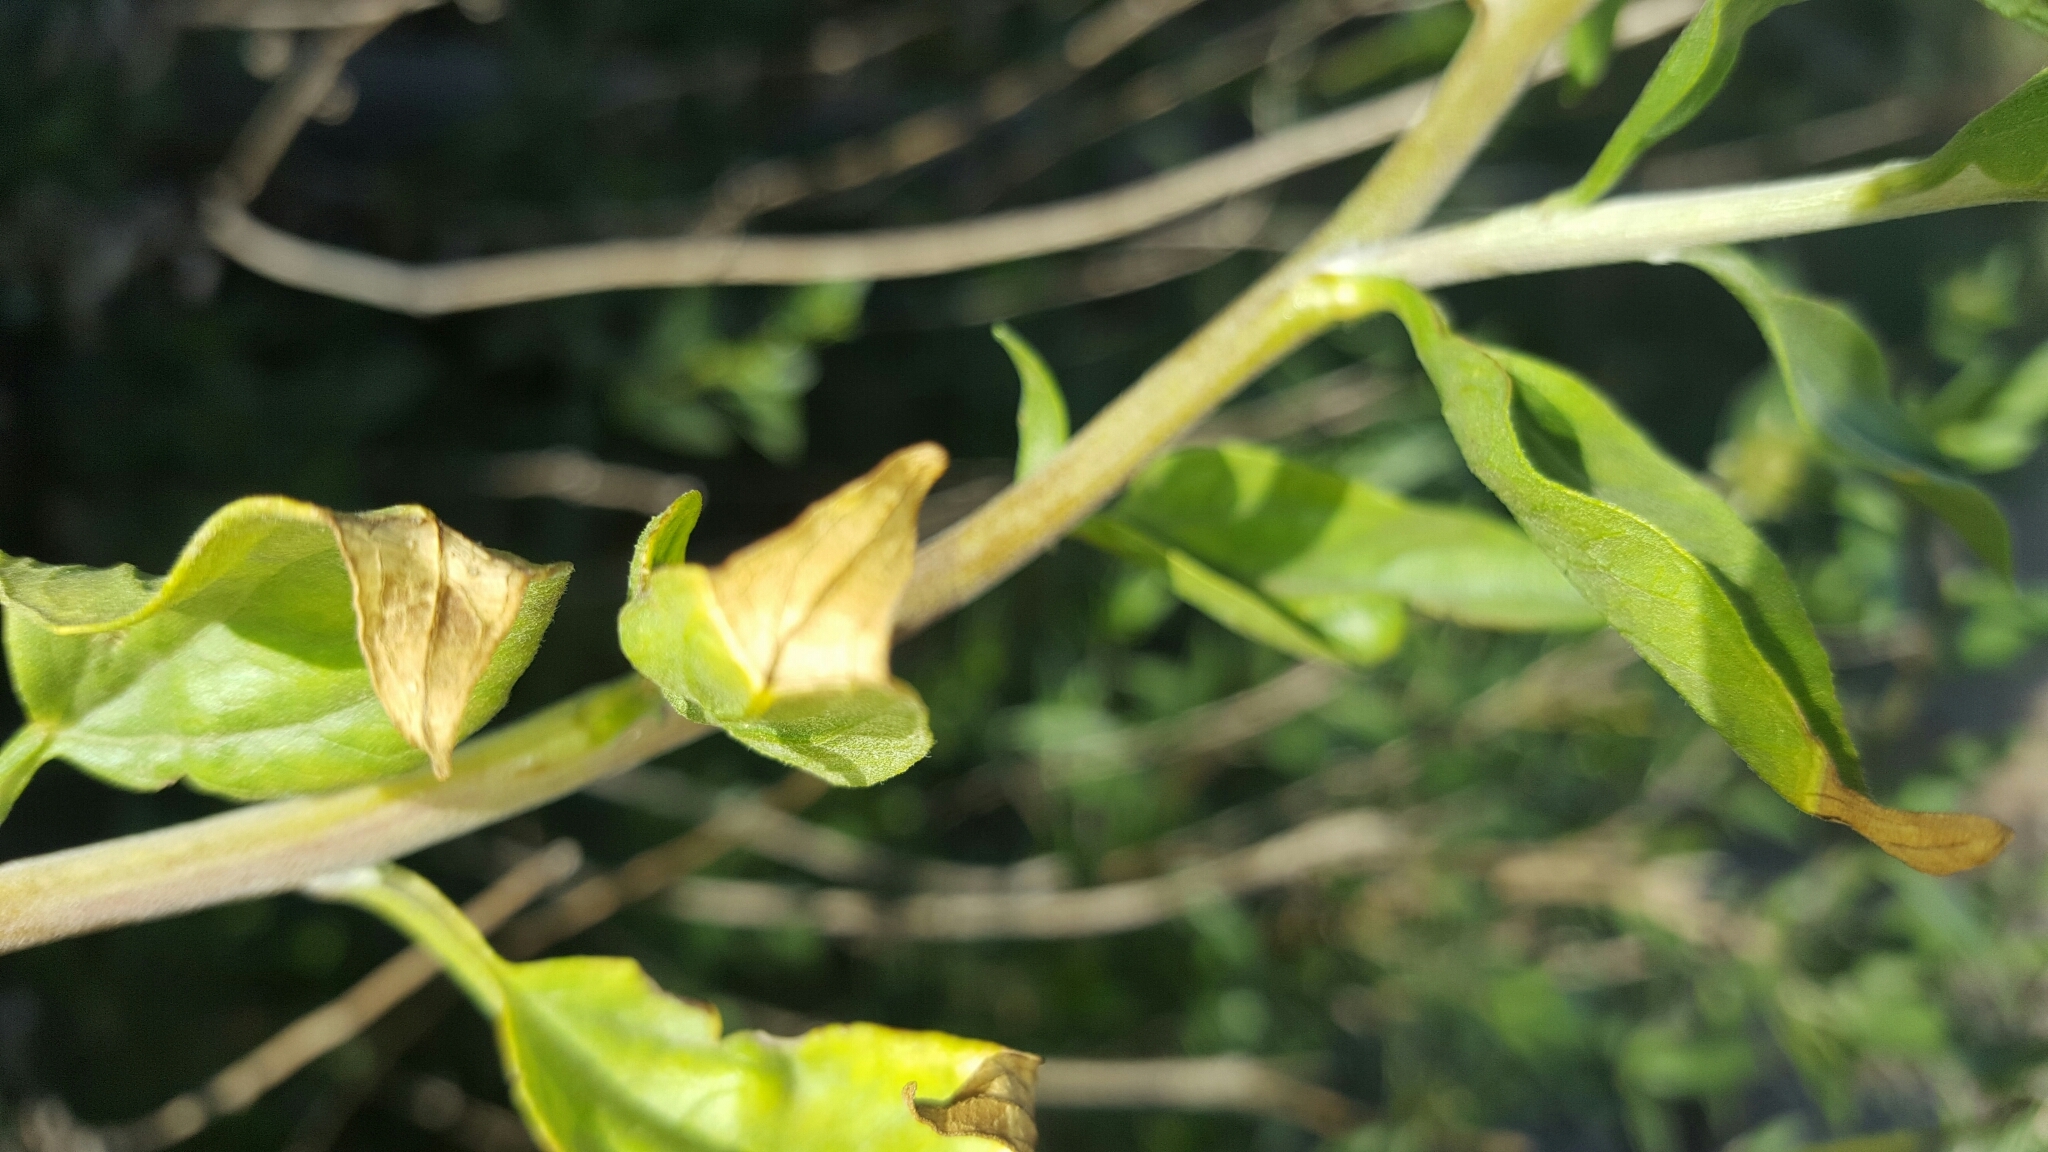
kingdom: Plantae
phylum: Tracheophyta
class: Magnoliopsida
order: Asterales
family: Asteraceae
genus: Encelia
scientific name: Encelia californica
